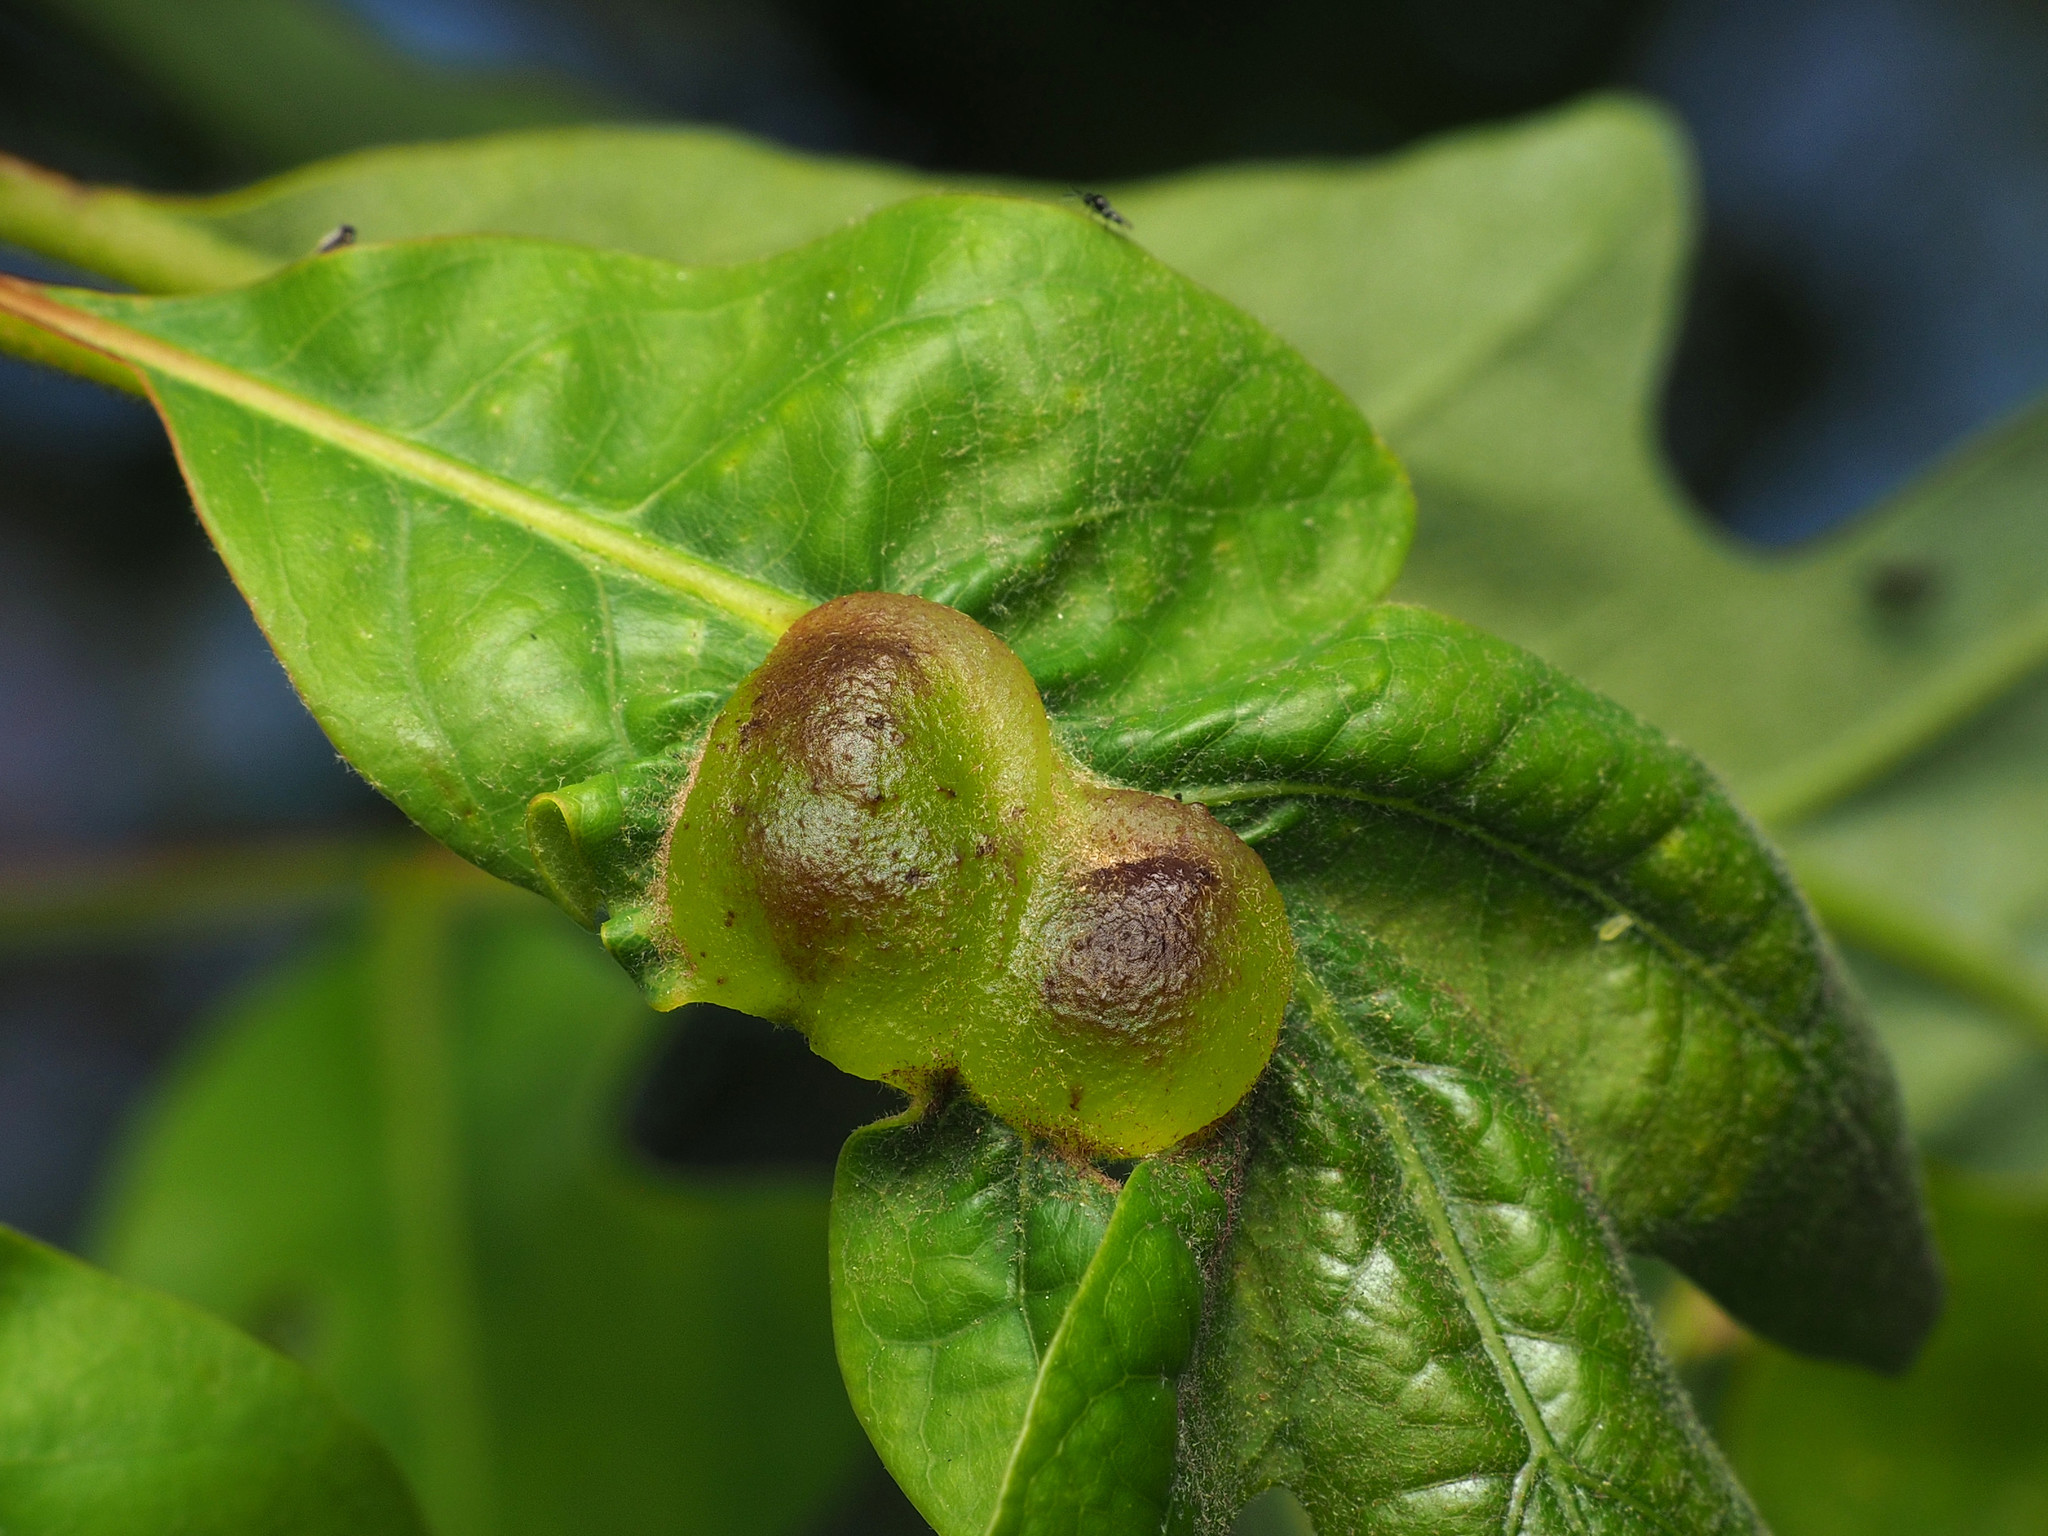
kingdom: Animalia
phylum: Arthropoda
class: Insecta
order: Hymenoptera
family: Cynipidae
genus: Neuroterus
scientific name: Neuroterus quercusirregularis
